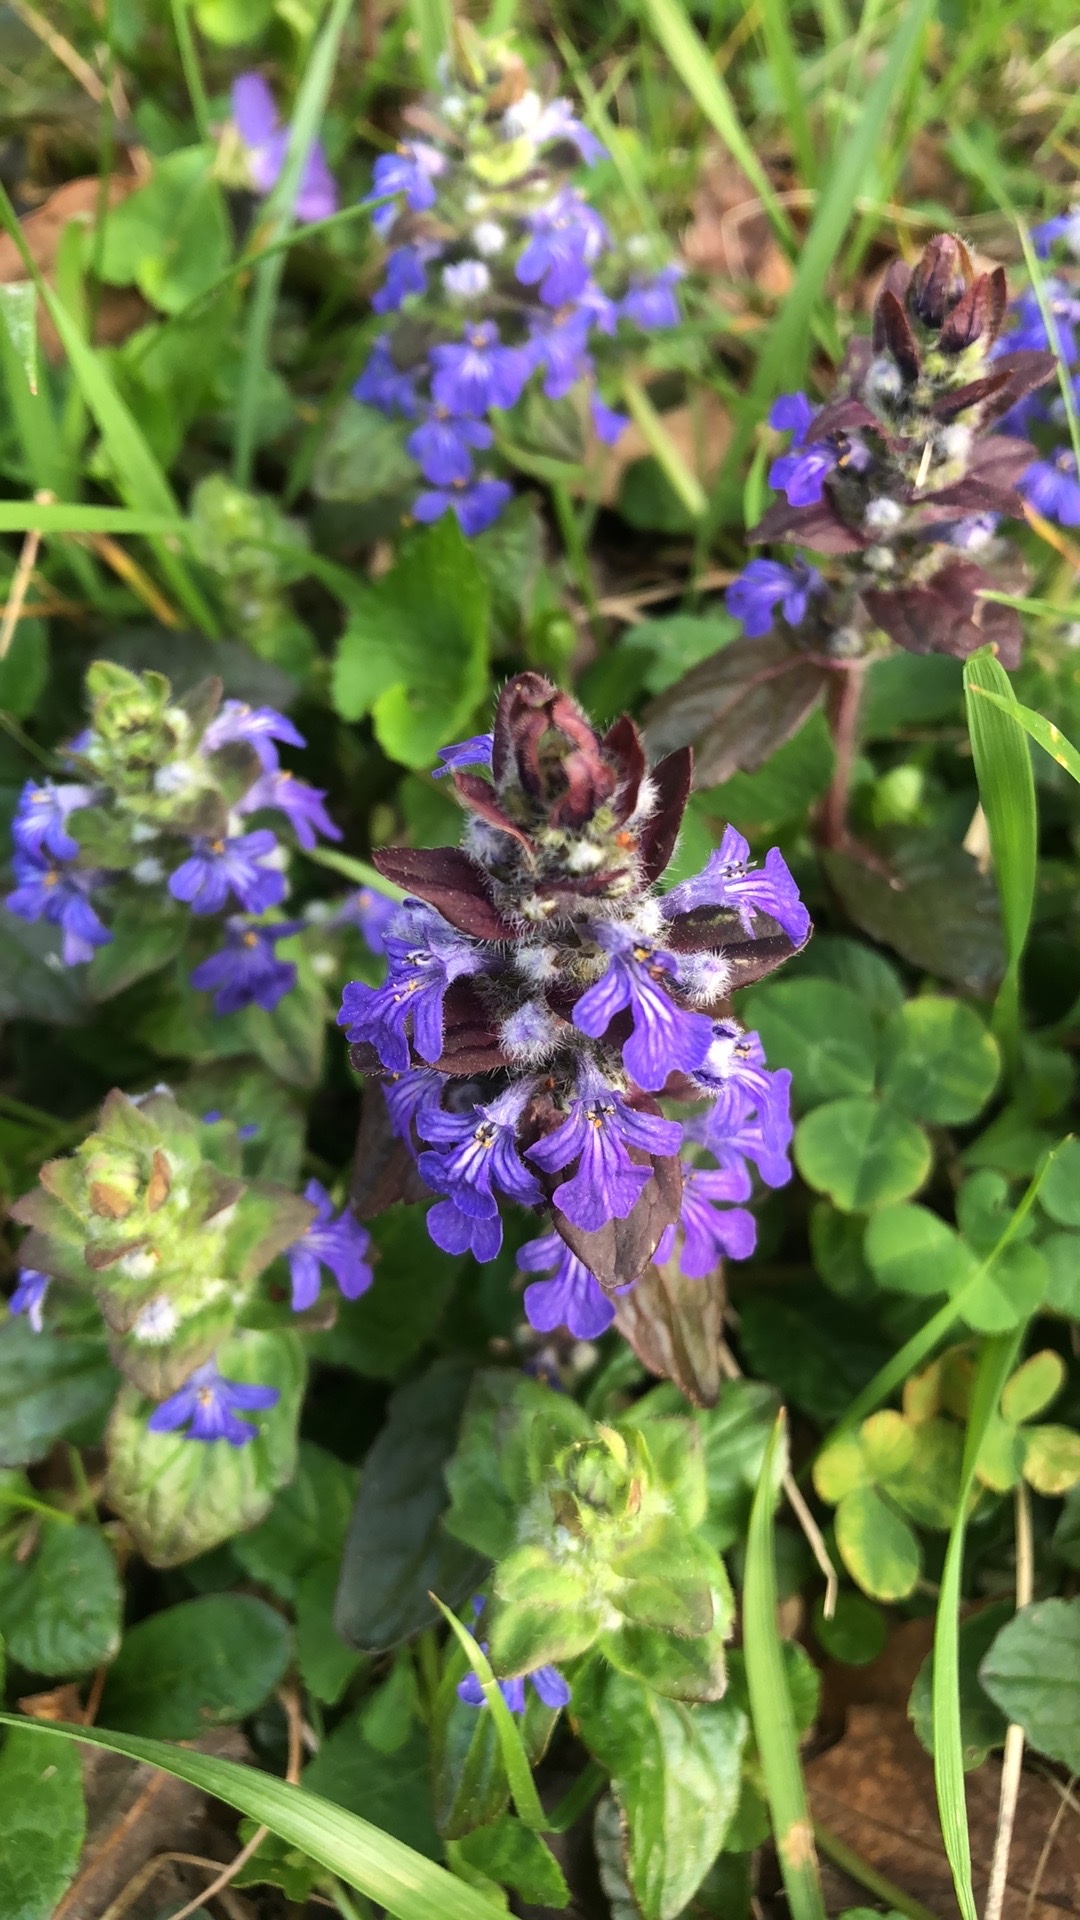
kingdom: Plantae
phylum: Tracheophyta
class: Magnoliopsida
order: Lamiales
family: Lamiaceae
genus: Ajuga
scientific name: Ajuga reptans
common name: Bugle
